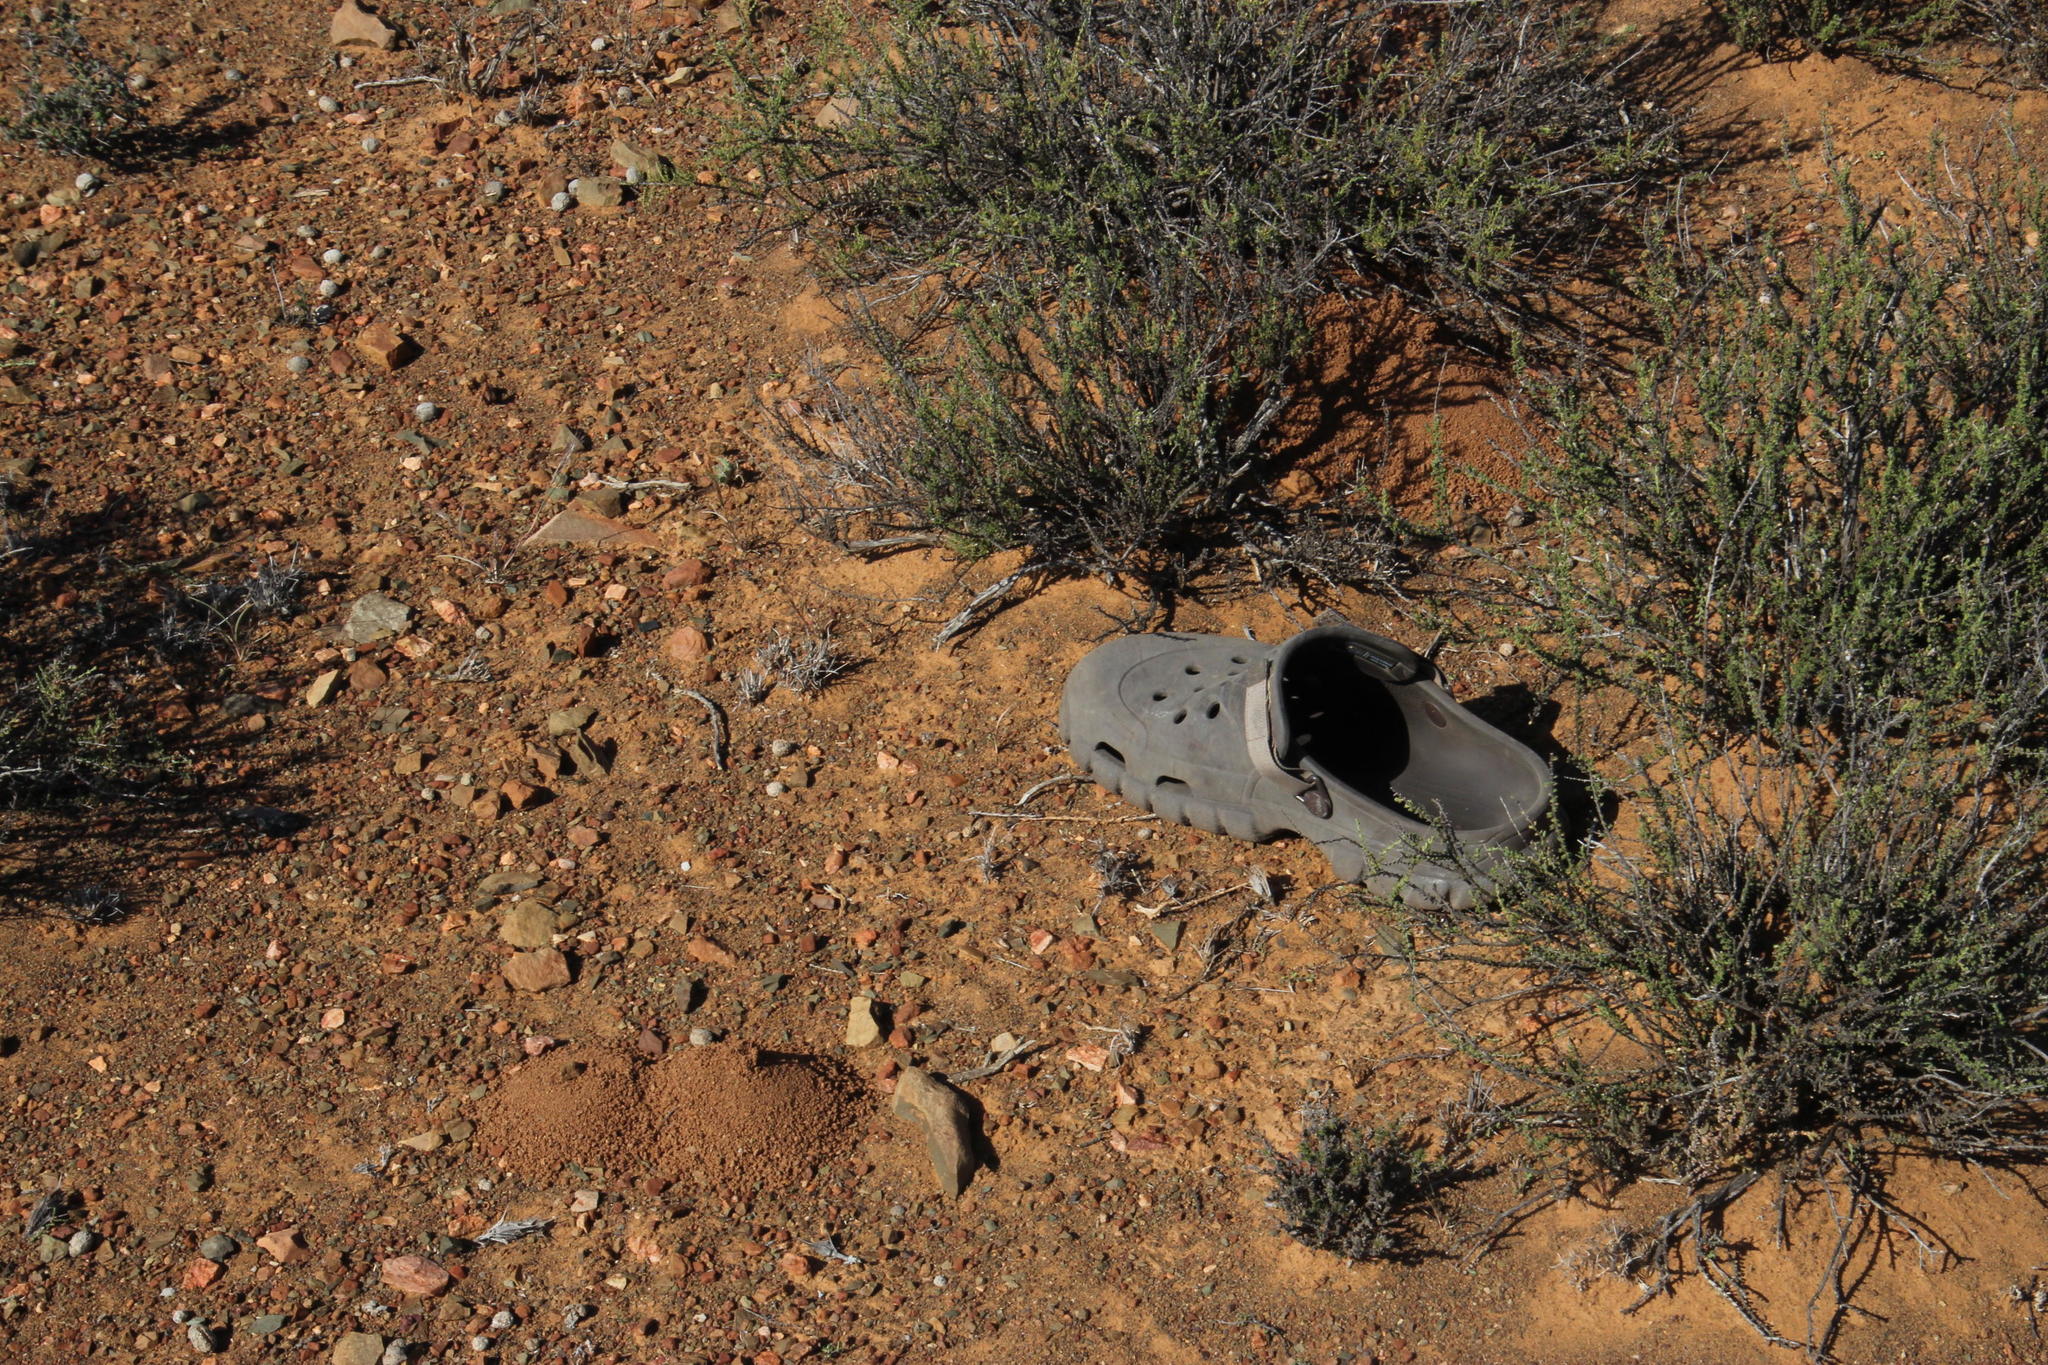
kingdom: Animalia
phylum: Arthropoda
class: Insecta
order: Blattodea
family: Hodotermitidae
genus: Hodotermes
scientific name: Hodotermes mossambicus
